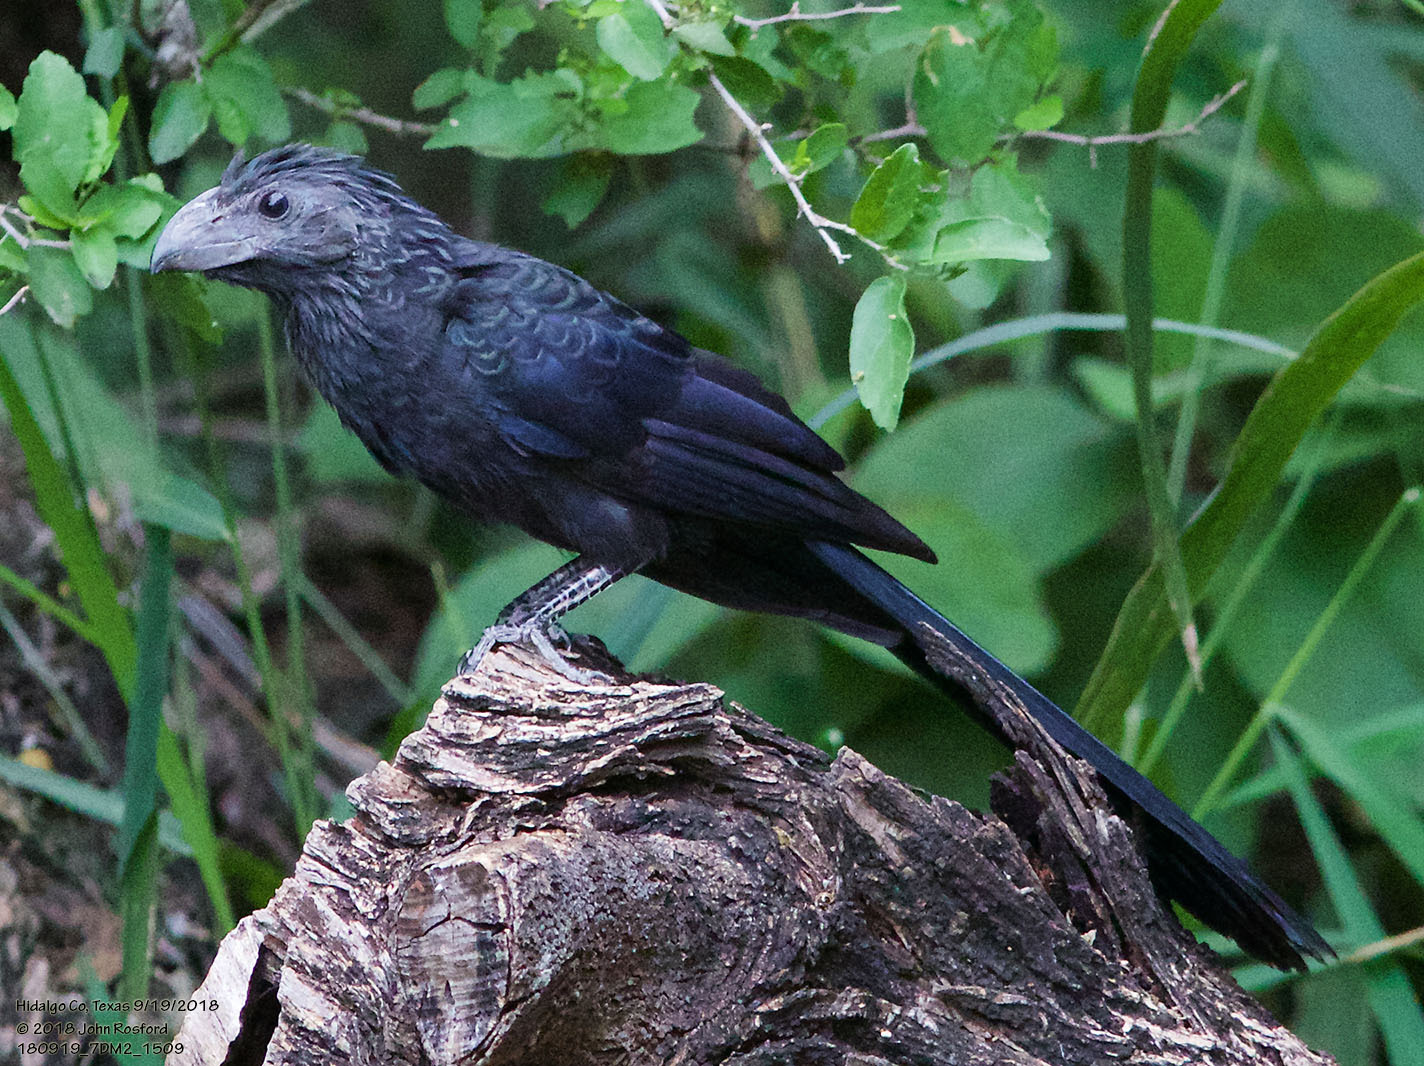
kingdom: Animalia
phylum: Chordata
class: Aves
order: Cuculiformes
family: Cuculidae
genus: Crotophaga
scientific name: Crotophaga sulcirostris
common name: Groove-billed ani
